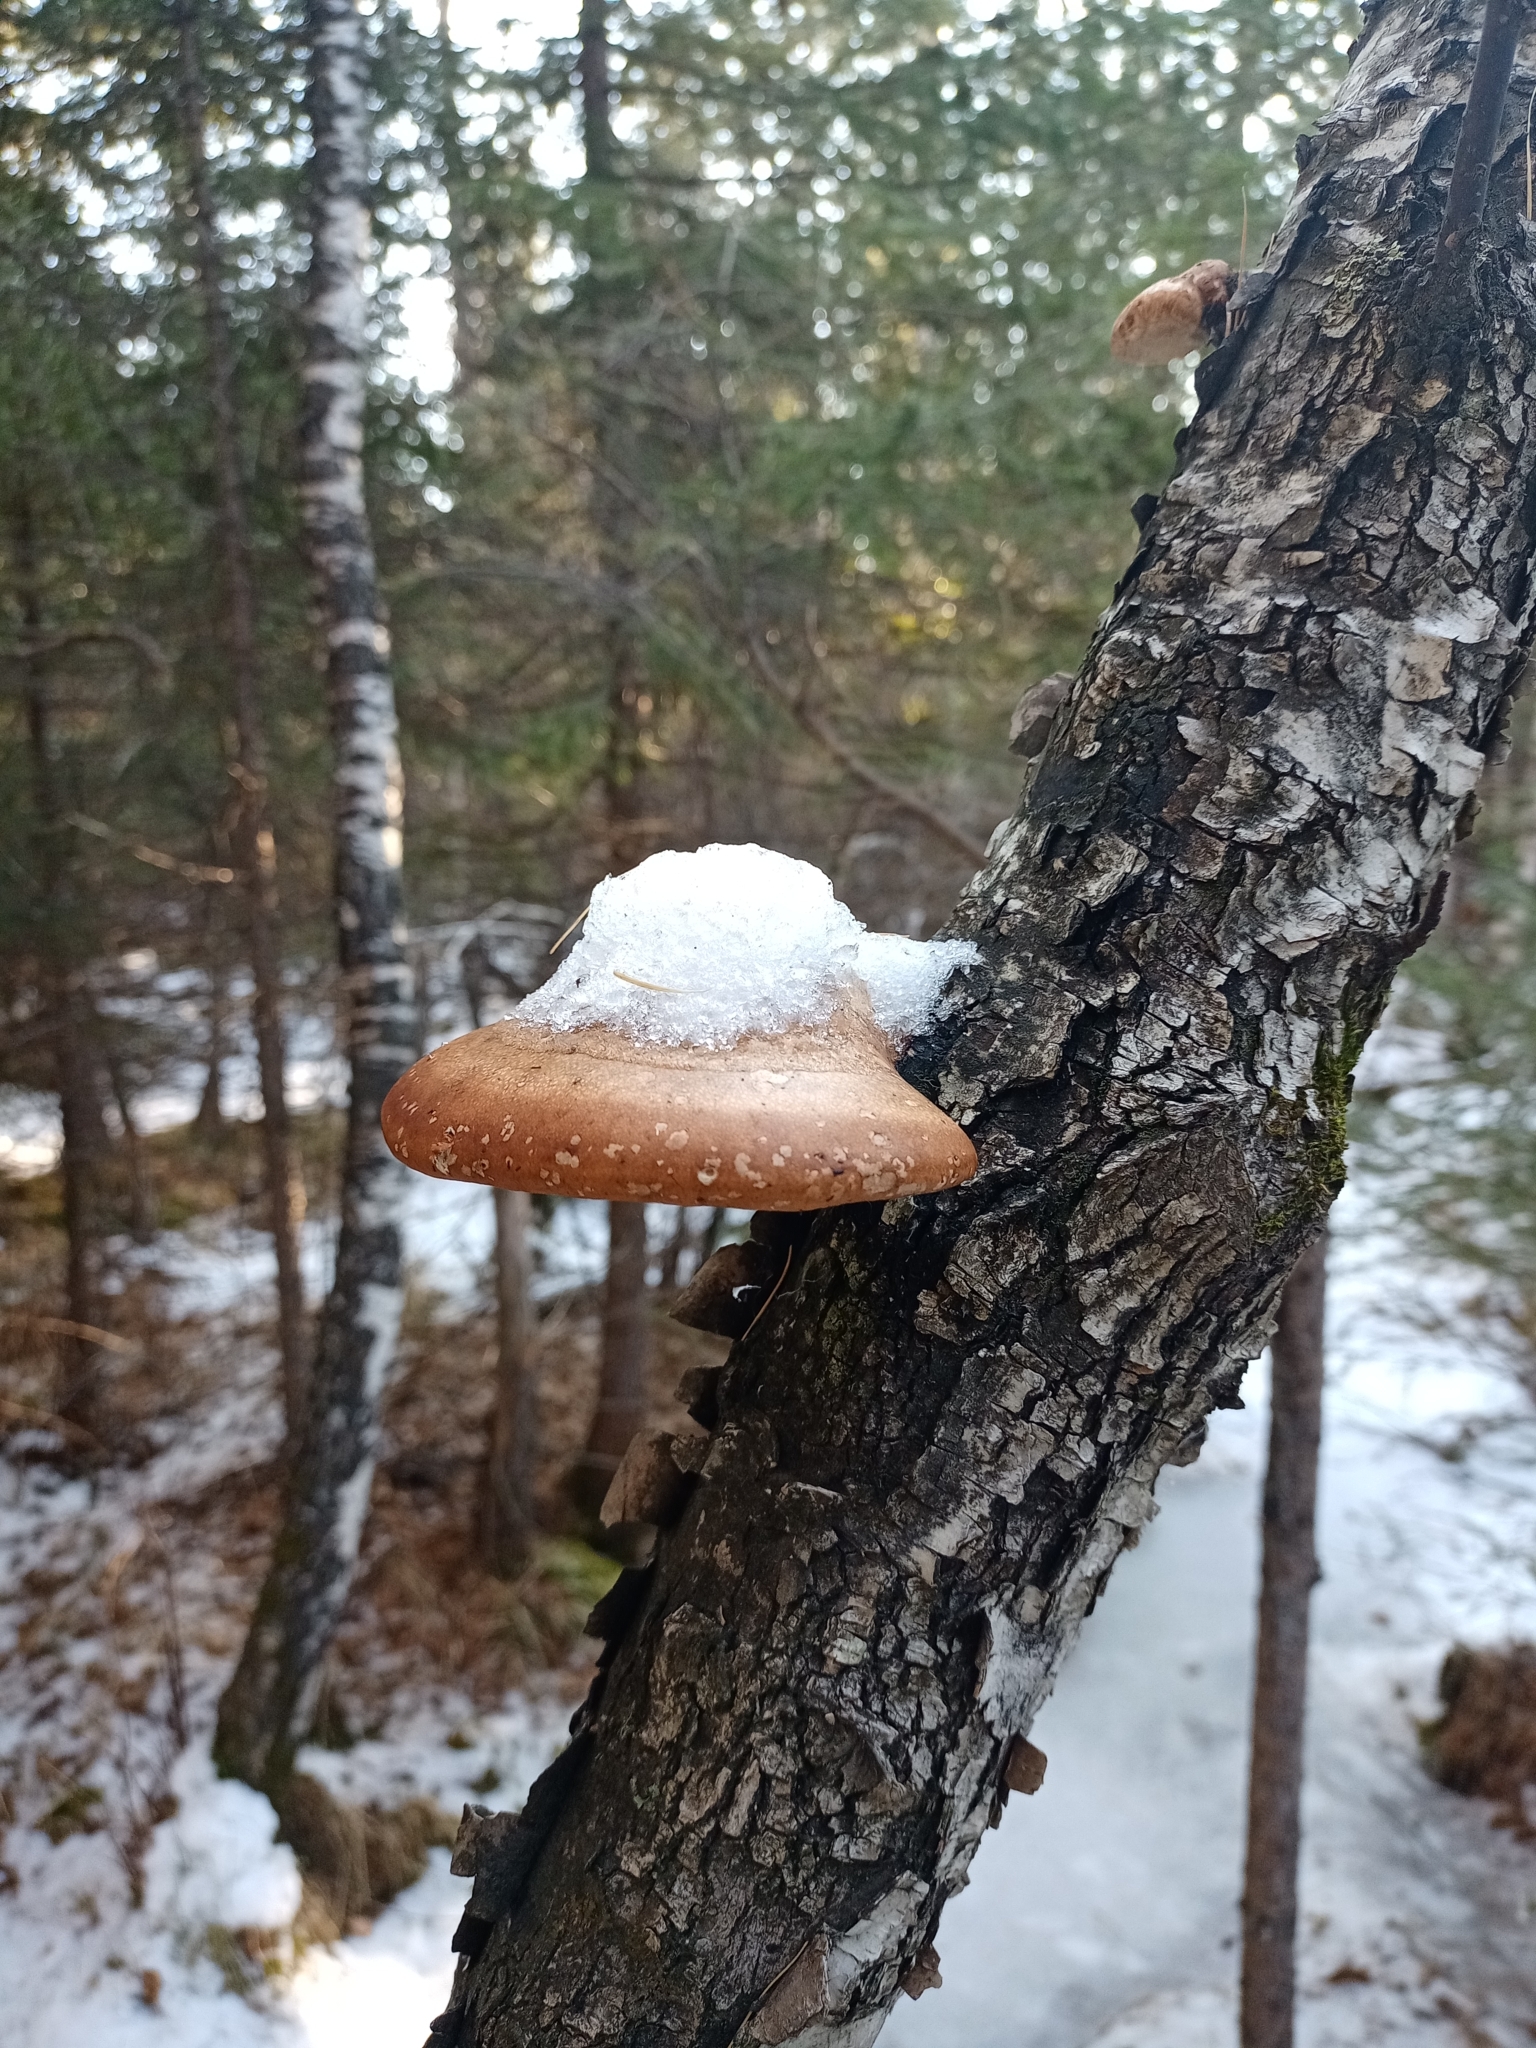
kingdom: Fungi
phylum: Basidiomycota
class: Agaricomycetes
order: Polyporales
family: Fomitopsidaceae
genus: Fomitopsis
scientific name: Fomitopsis betulina
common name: Birch polypore
